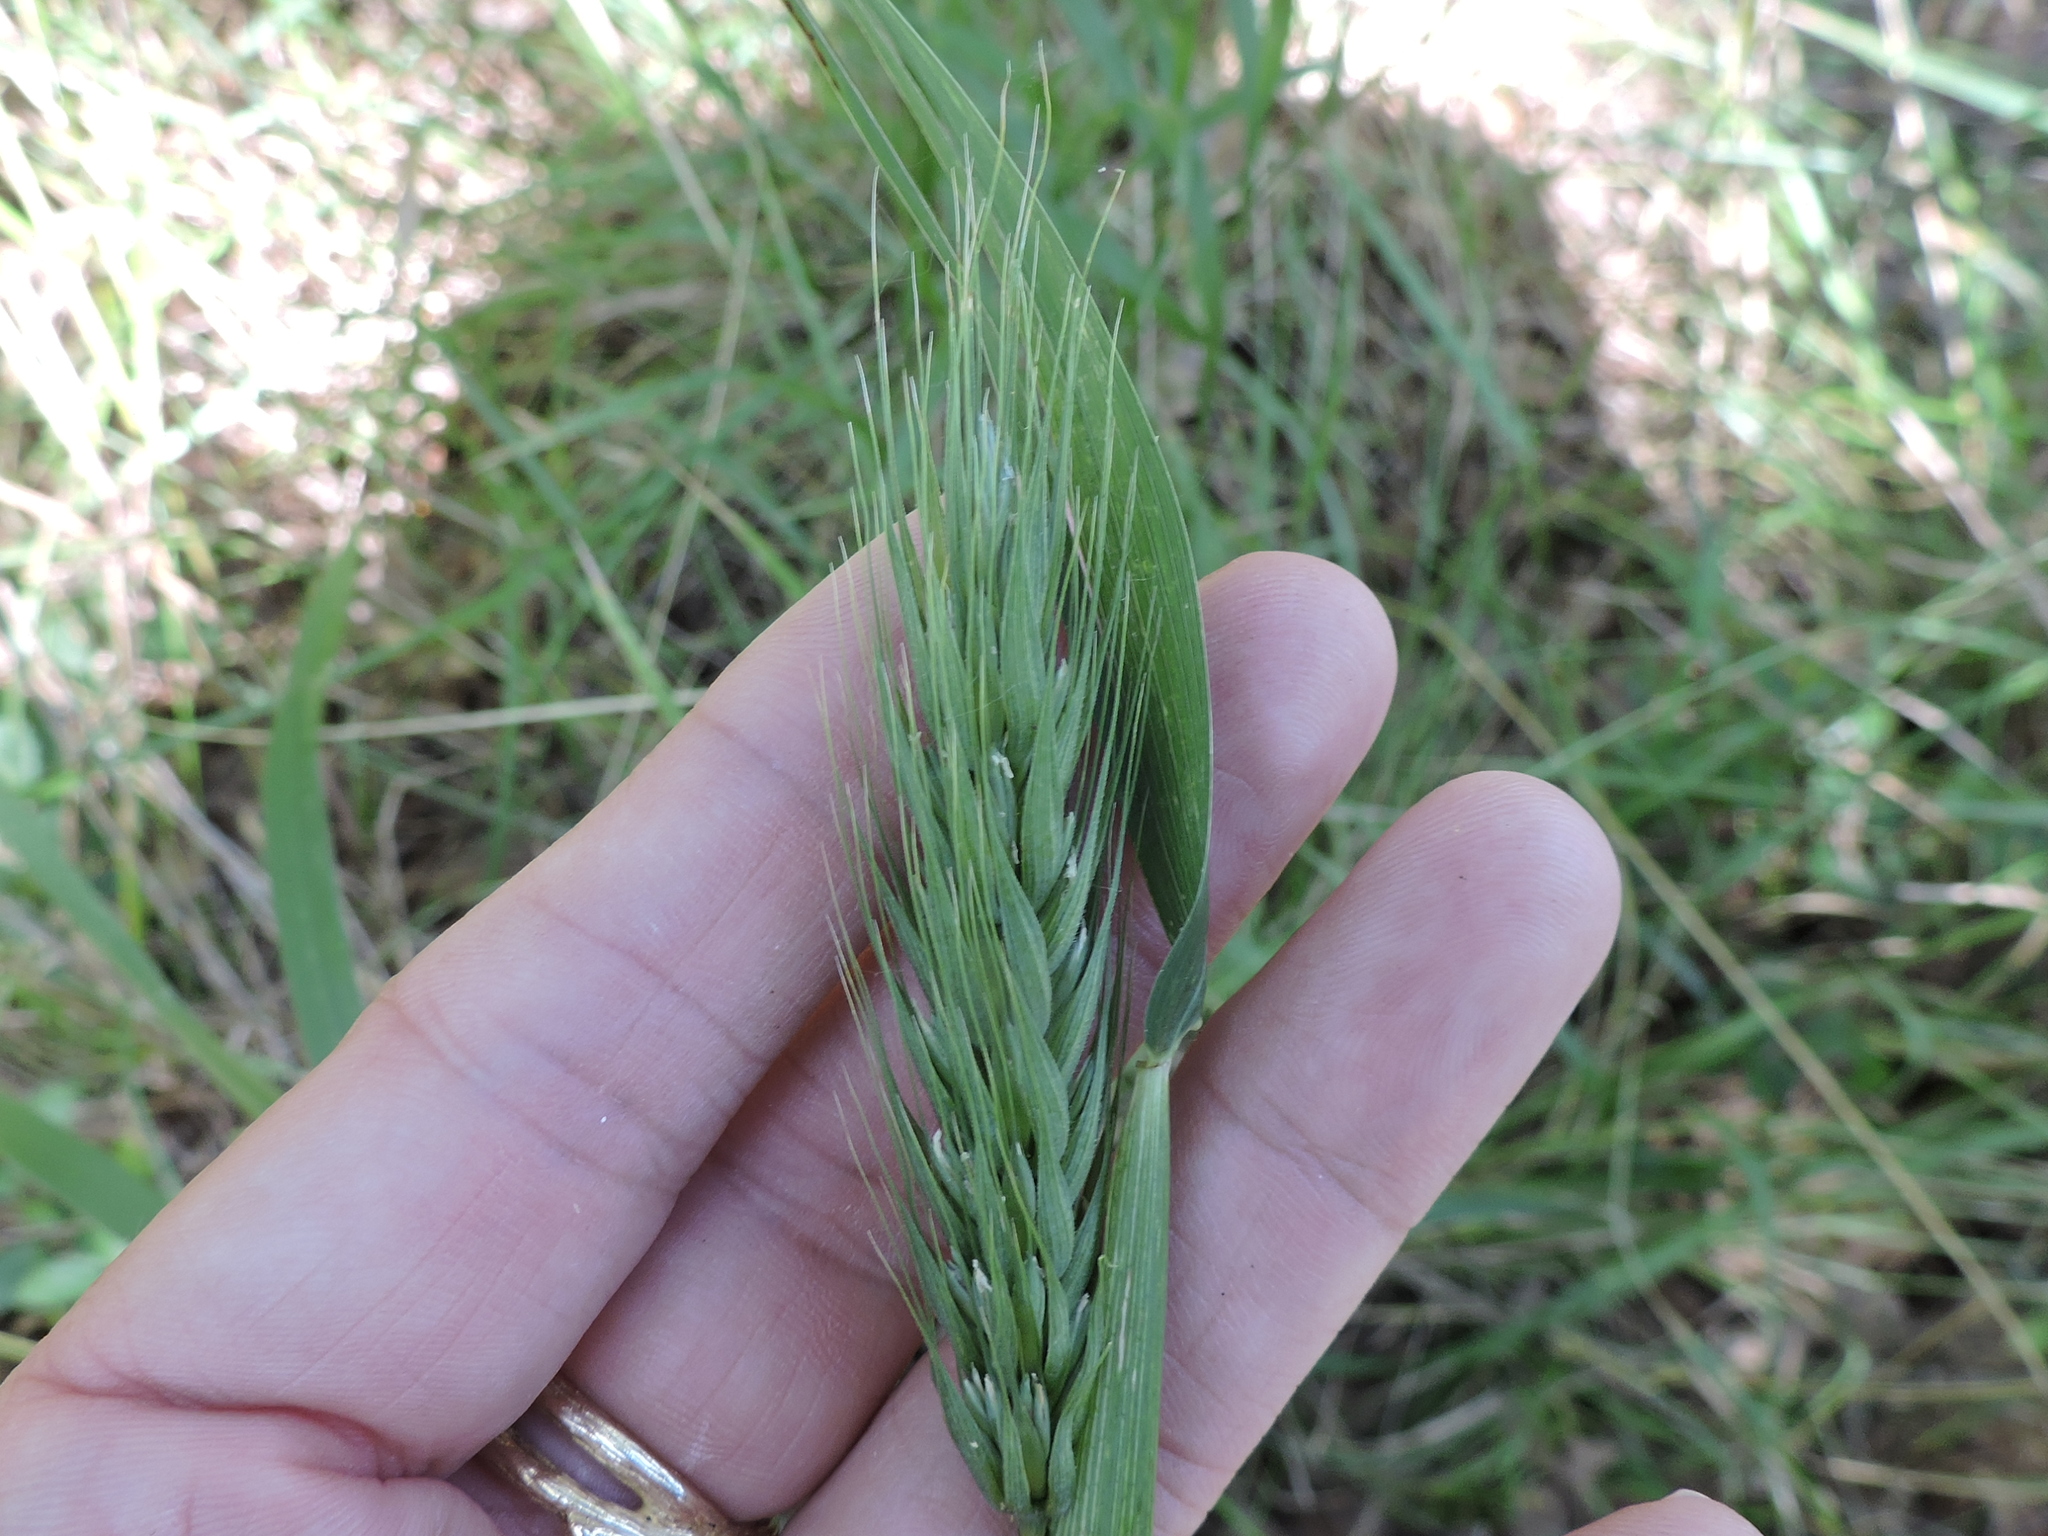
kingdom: Plantae
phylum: Tracheophyta
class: Liliopsida
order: Poales
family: Poaceae
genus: Elymus
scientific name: Elymus virginicus
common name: Common eastern wildrye
